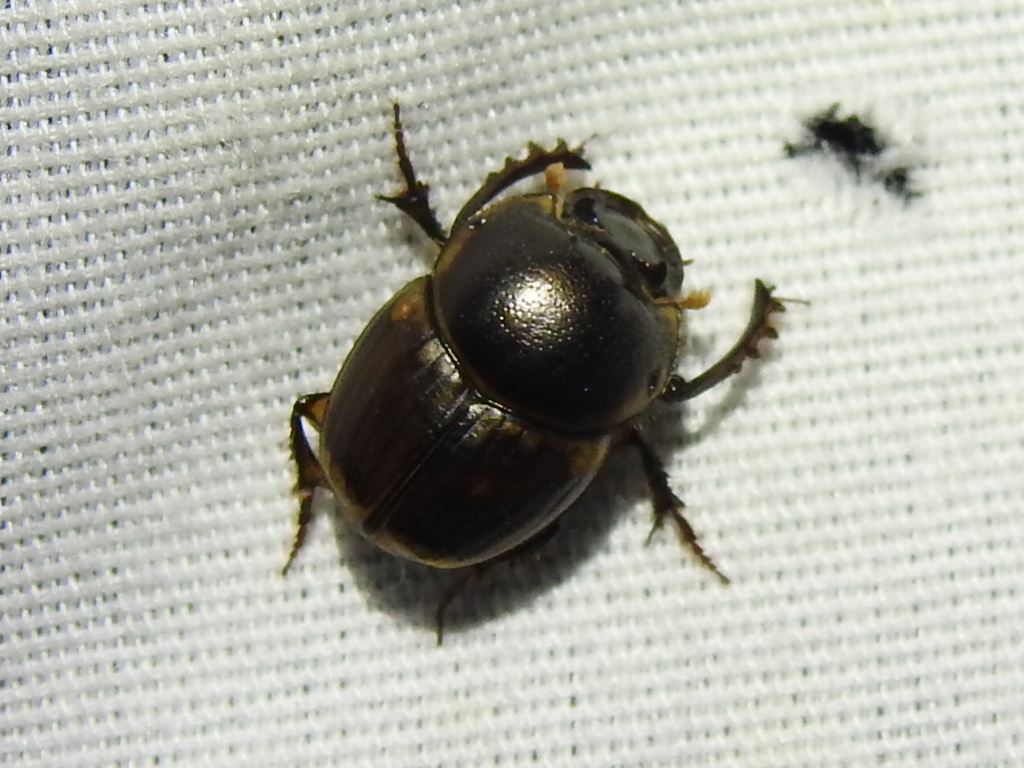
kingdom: Animalia
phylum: Arthropoda
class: Insecta
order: Coleoptera
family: Scarabaeidae
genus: Digitonthophagus
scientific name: Digitonthophagus gazella
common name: Brown dung beetle
